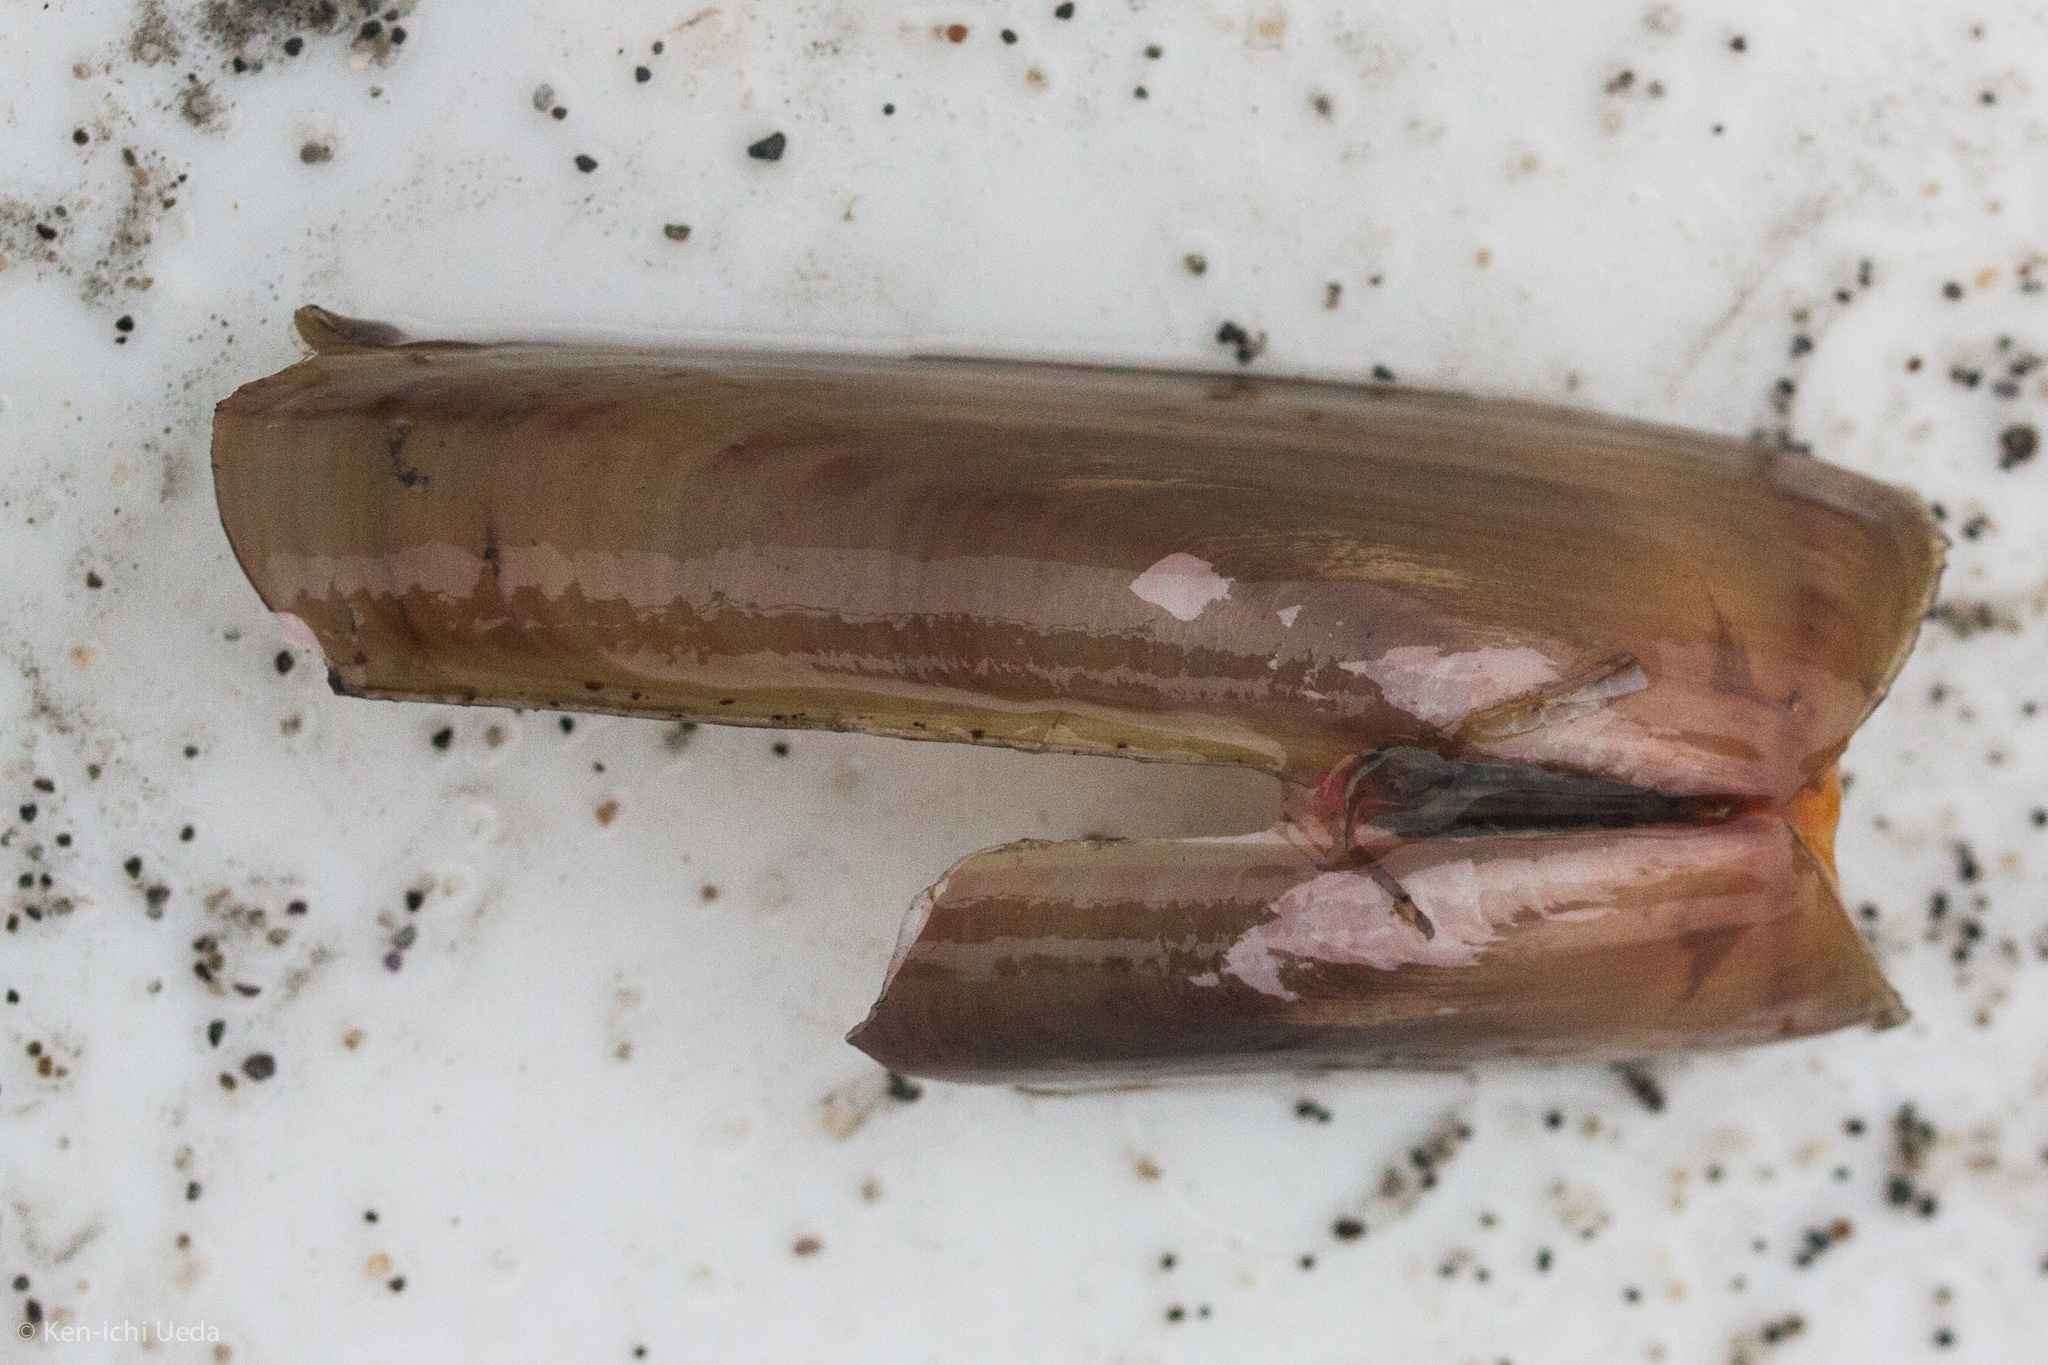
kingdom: Animalia
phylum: Mollusca
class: Bivalvia
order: Adapedonta
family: Solenidae
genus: Solen
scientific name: Solen sicarius
